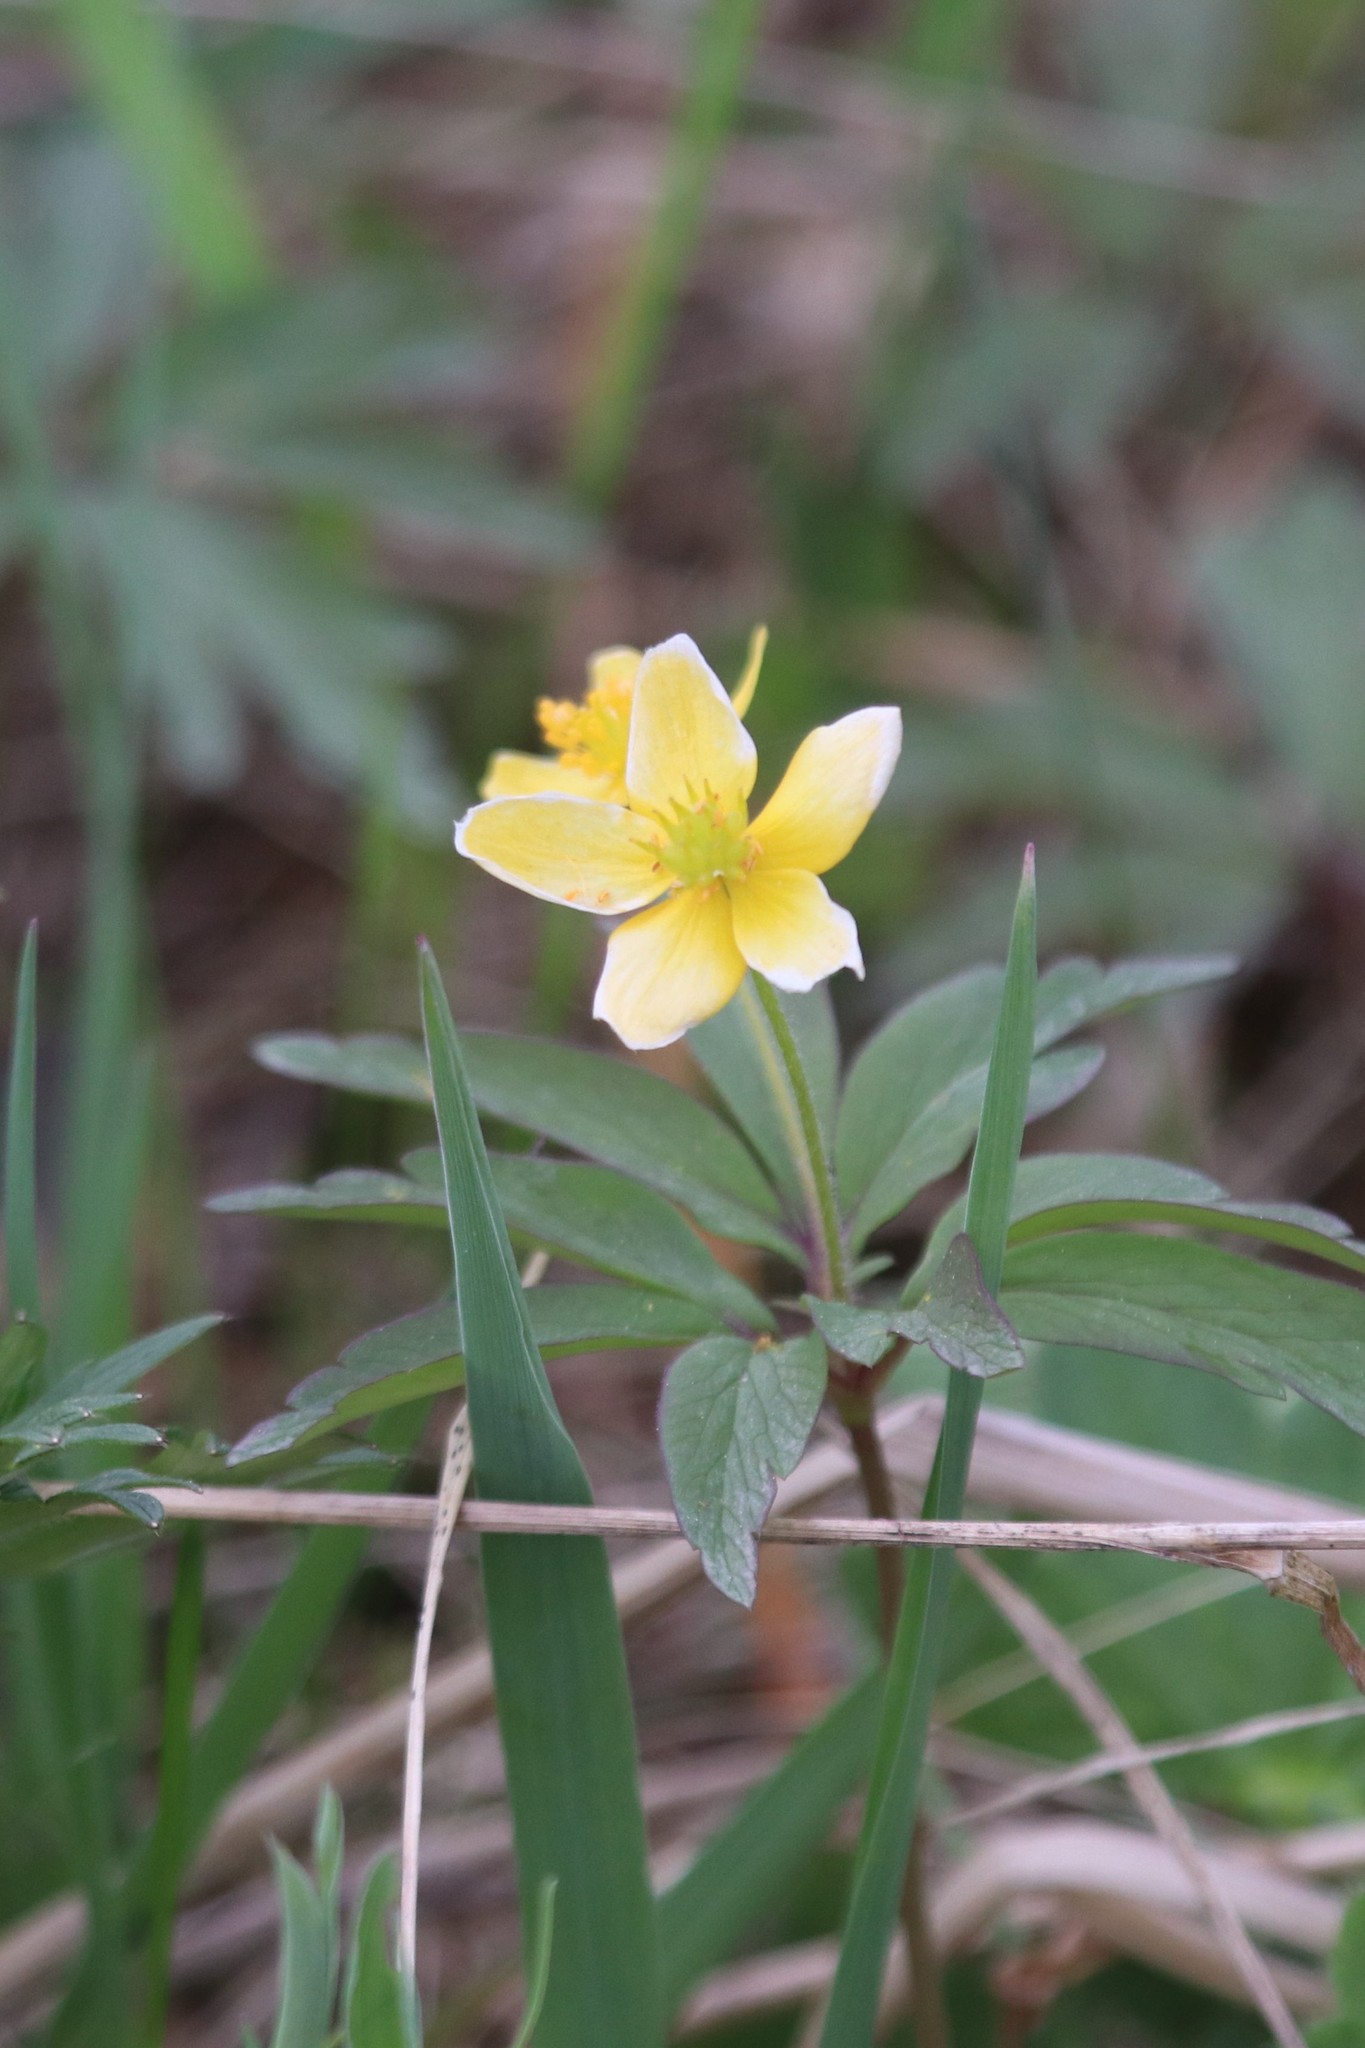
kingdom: Plantae
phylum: Tracheophyta
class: Magnoliopsida
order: Ranunculales
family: Ranunculaceae
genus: Anemone
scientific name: Anemone ranunculoides
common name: Yellow anemone
